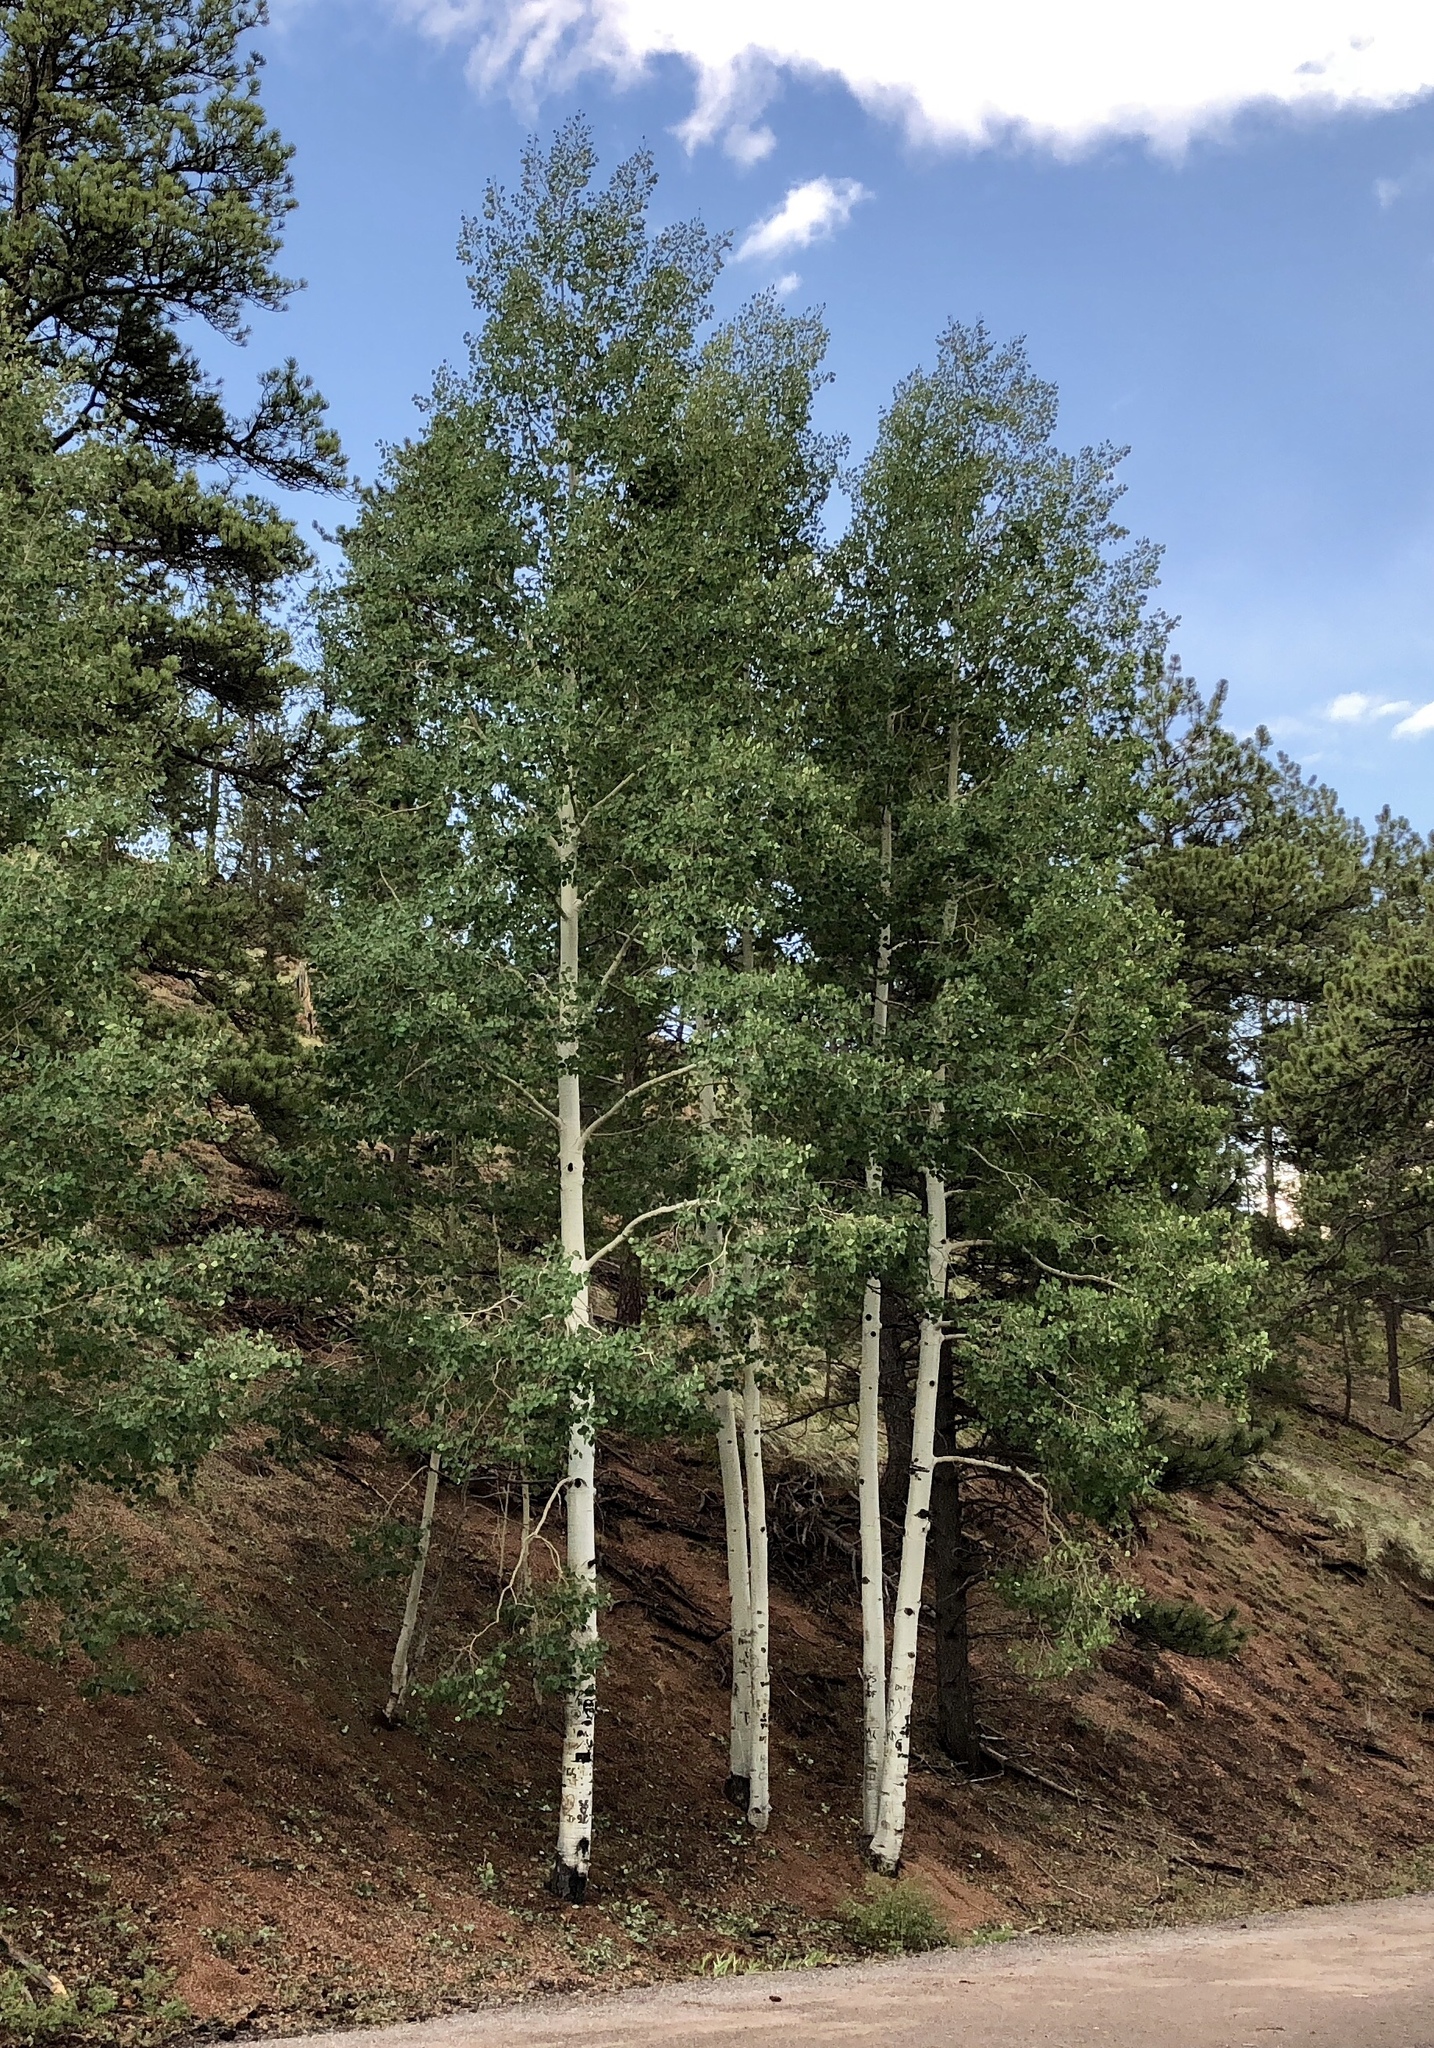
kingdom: Plantae
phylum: Tracheophyta
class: Magnoliopsida
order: Malpighiales
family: Salicaceae
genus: Populus
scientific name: Populus tremuloides
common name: Quaking aspen
